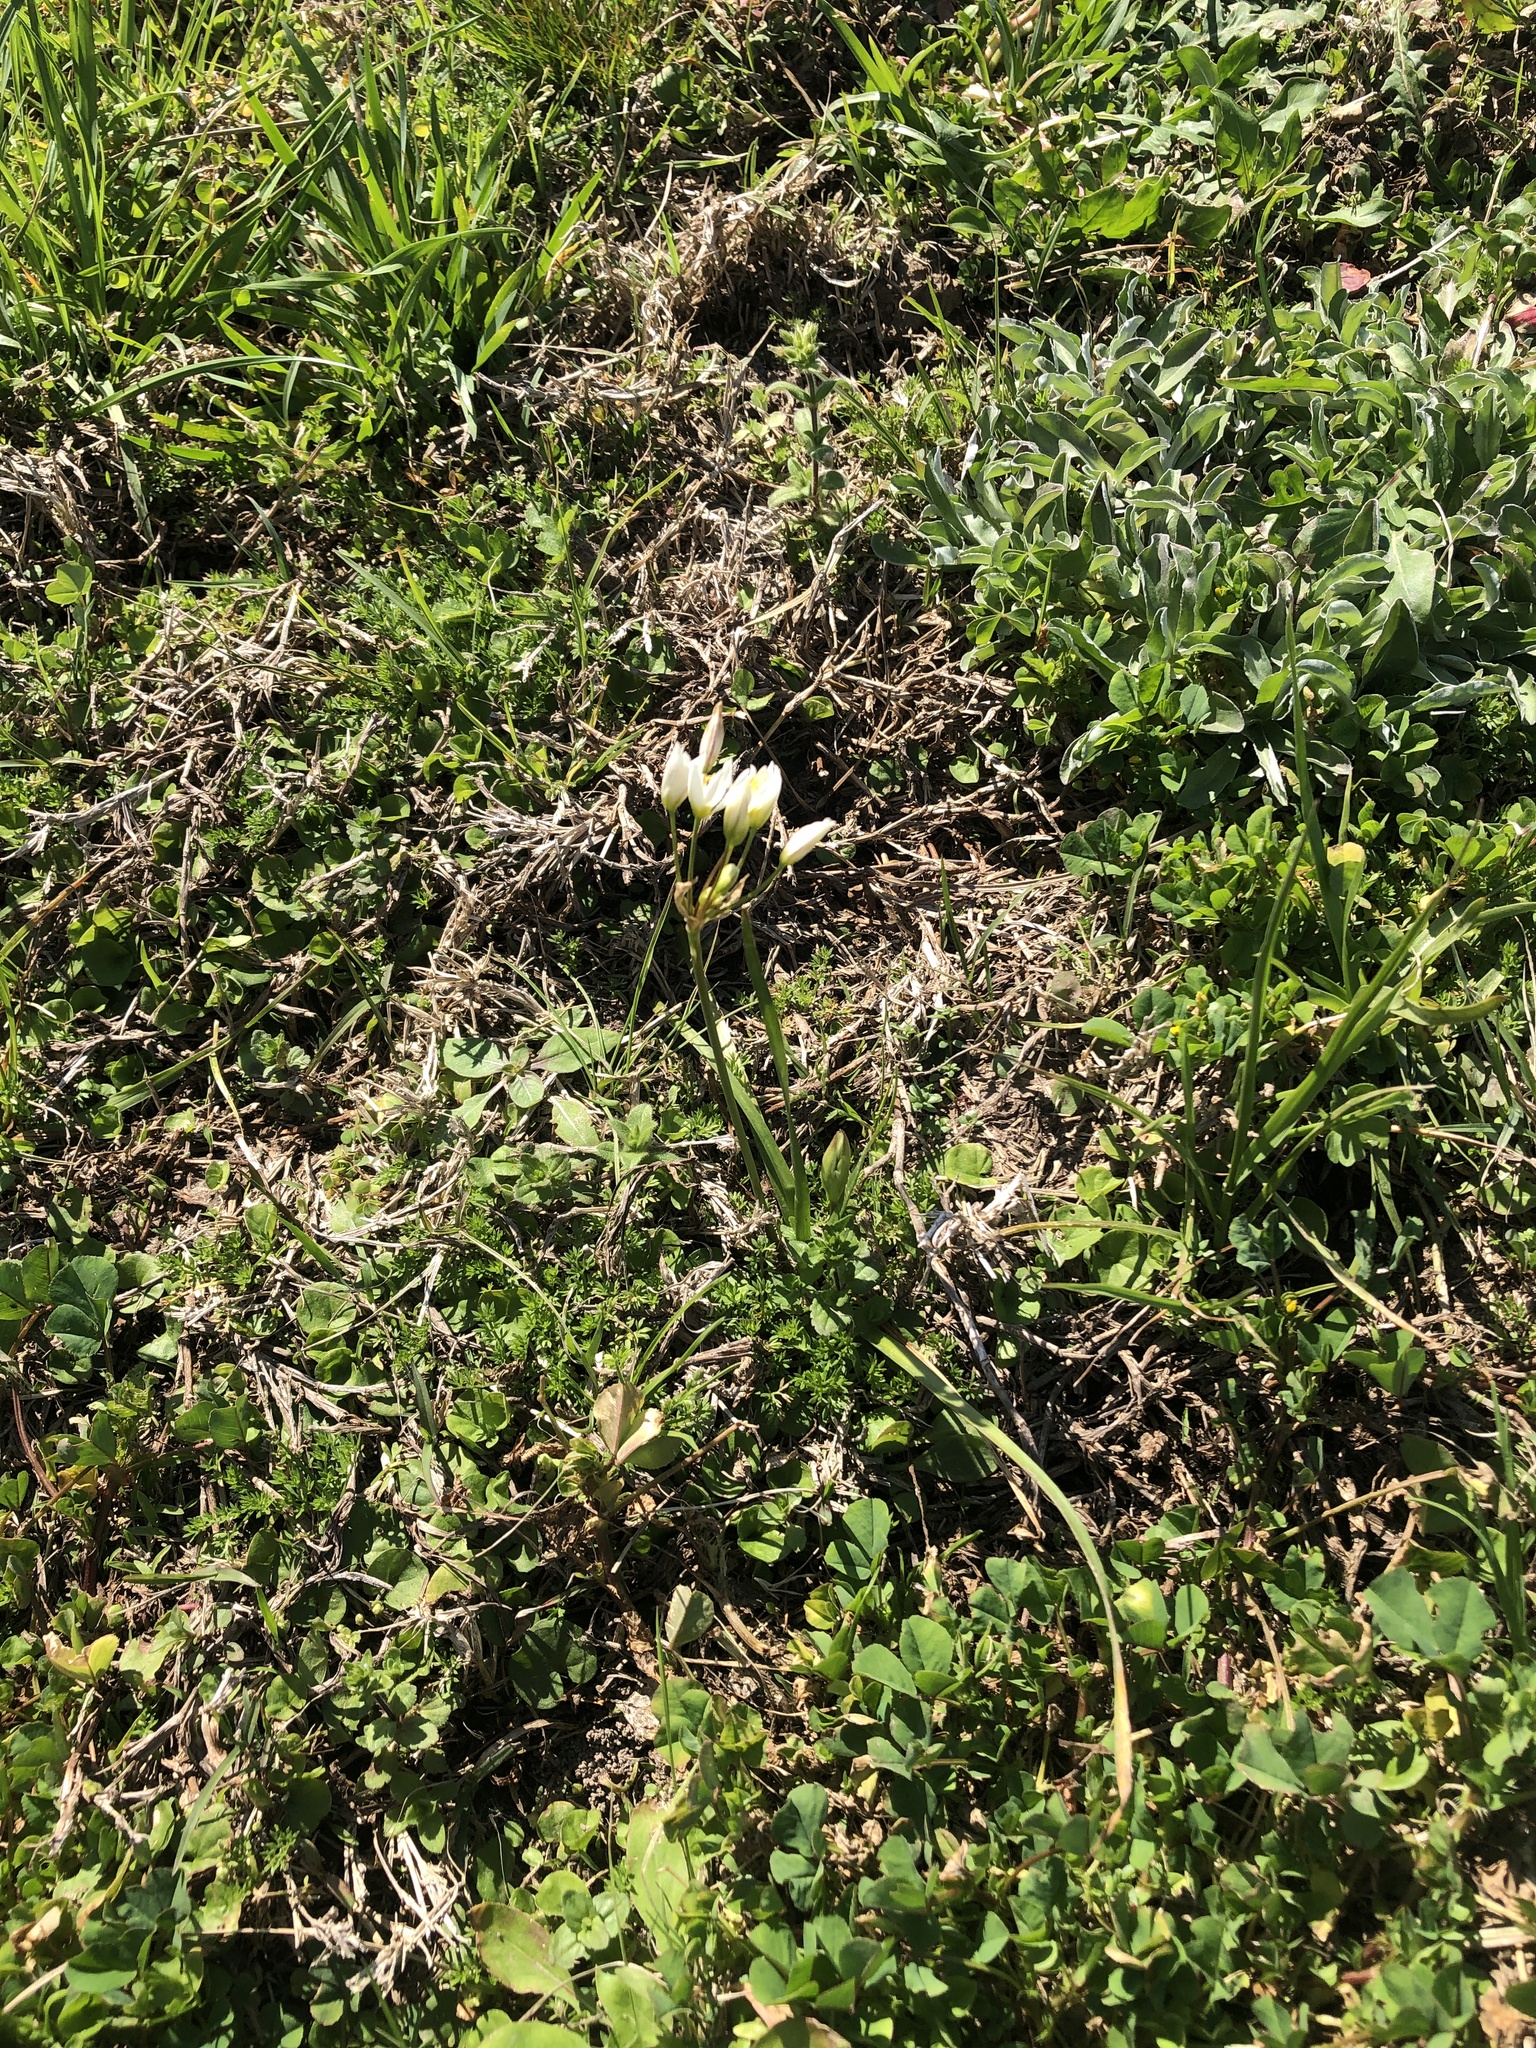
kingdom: Plantae
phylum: Tracheophyta
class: Liliopsida
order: Asparagales
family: Amaryllidaceae
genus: Nothoscordum
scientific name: Nothoscordum bivalve
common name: Crow-poison
